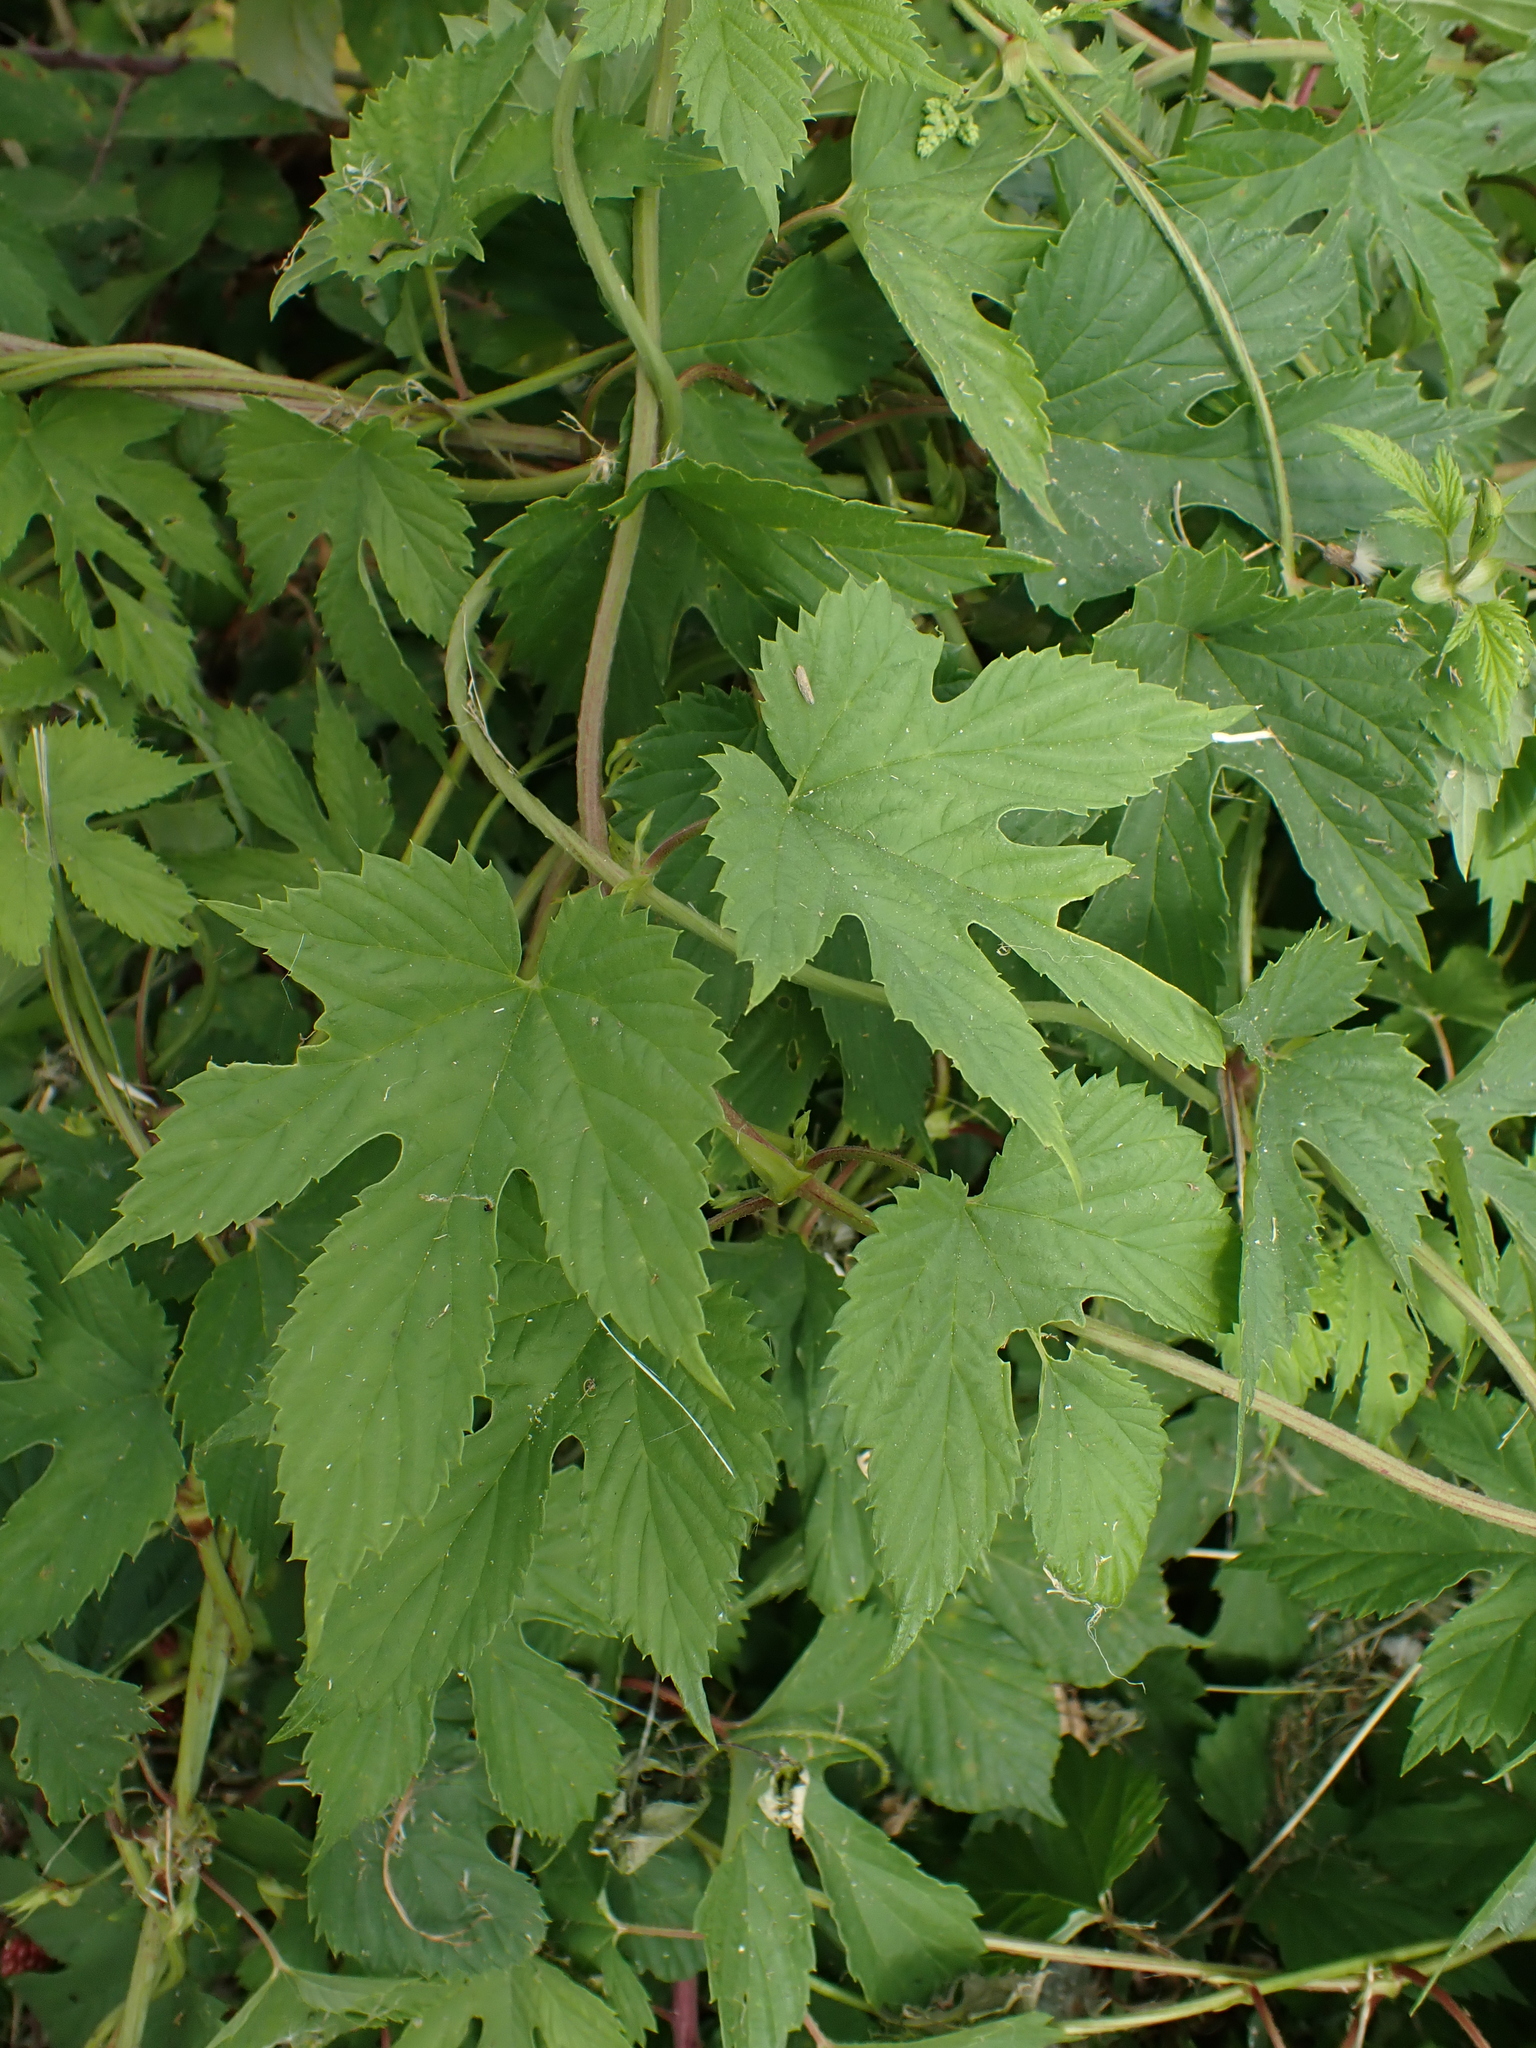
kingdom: Plantae
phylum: Tracheophyta
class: Magnoliopsida
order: Rosales
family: Cannabaceae
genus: Humulus
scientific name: Humulus lupulus
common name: Hop
